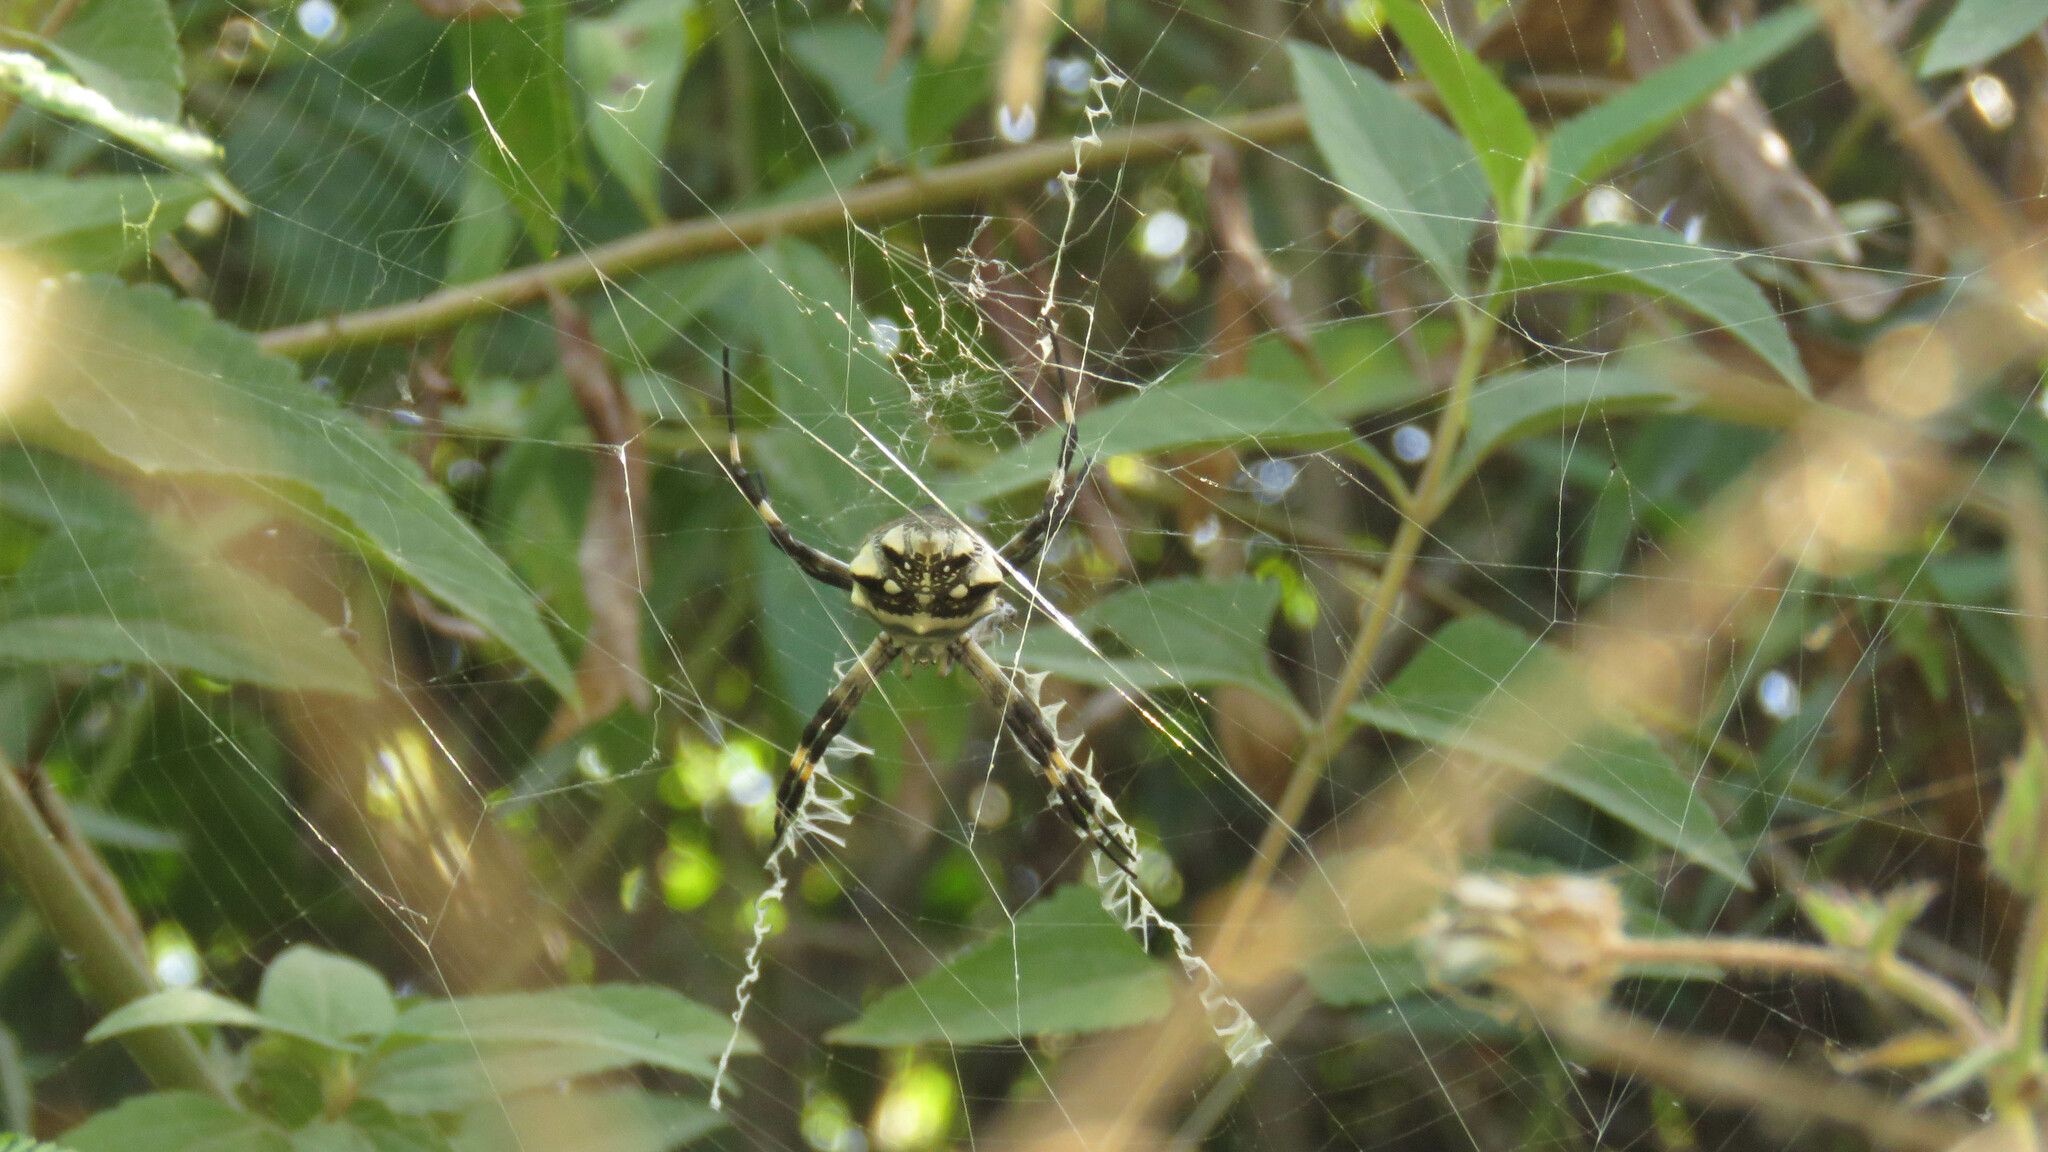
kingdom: Animalia
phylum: Arthropoda
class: Arachnida
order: Araneae
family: Araneidae
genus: Argiope
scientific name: Argiope argentata
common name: Orb weavers
